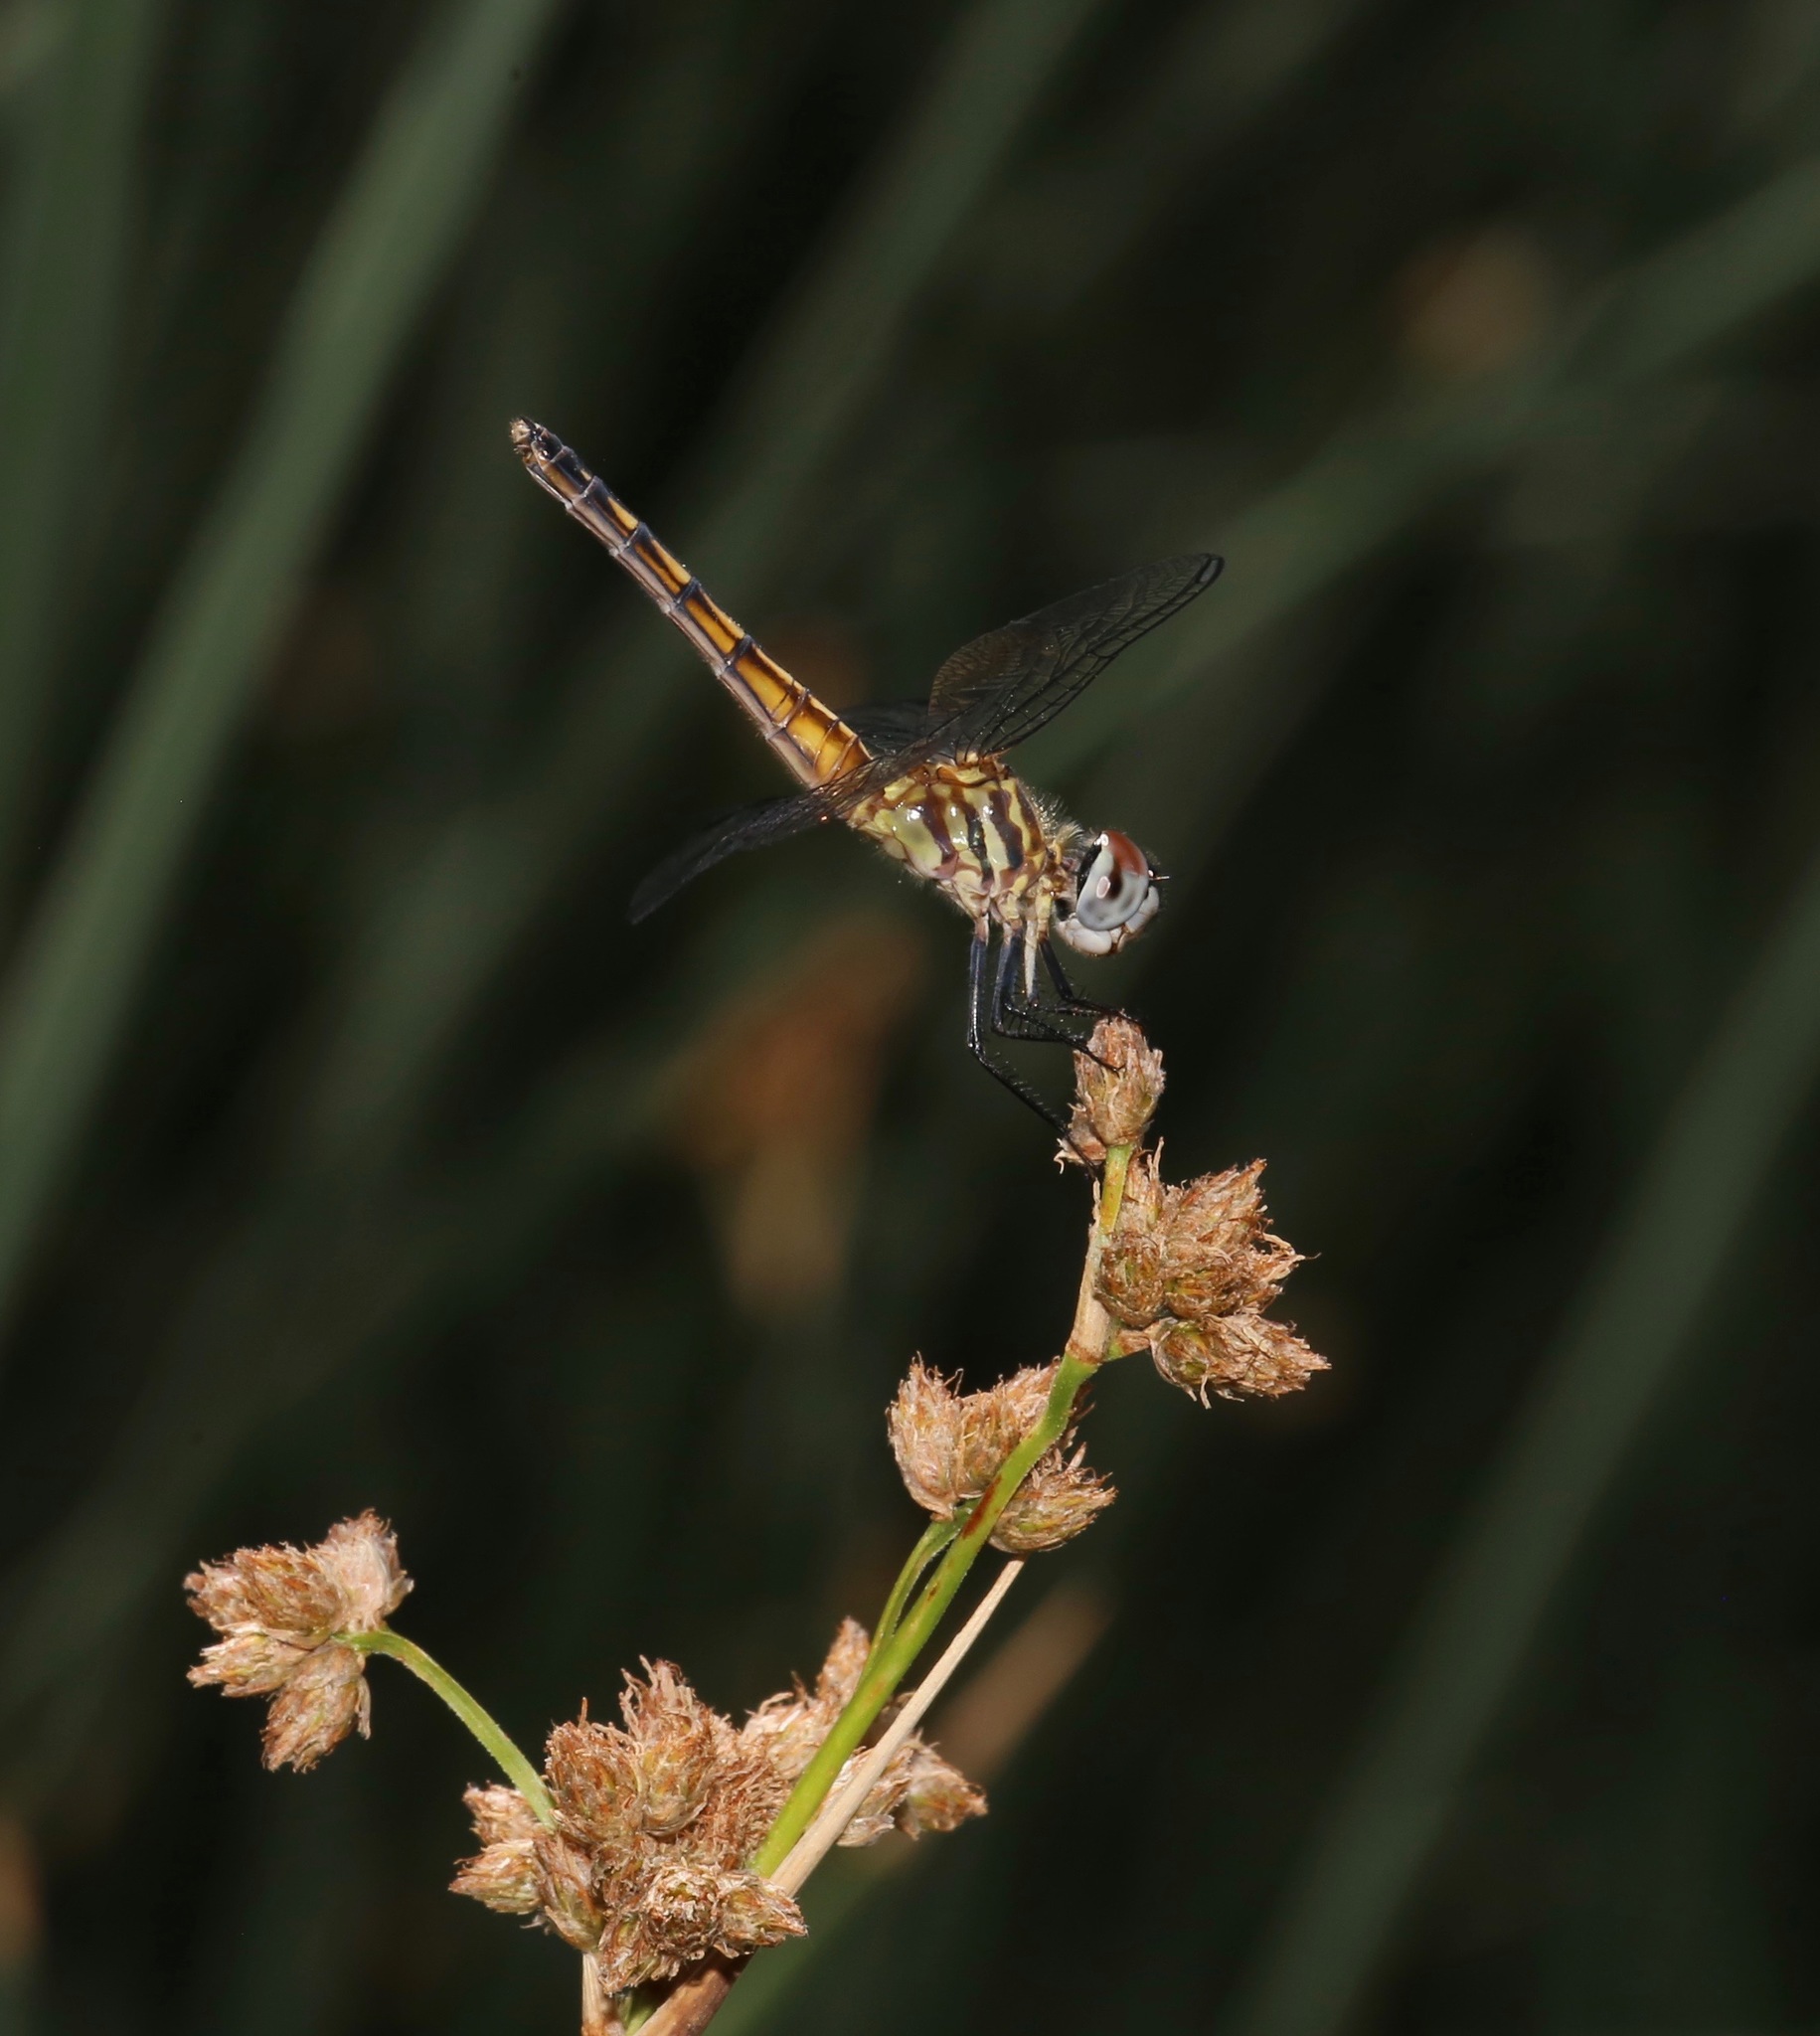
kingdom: Animalia
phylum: Arthropoda
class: Insecta
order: Odonata
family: Libellulidae
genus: Pachydiplax
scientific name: Pachydiplax longipennis
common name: Blue dasher
